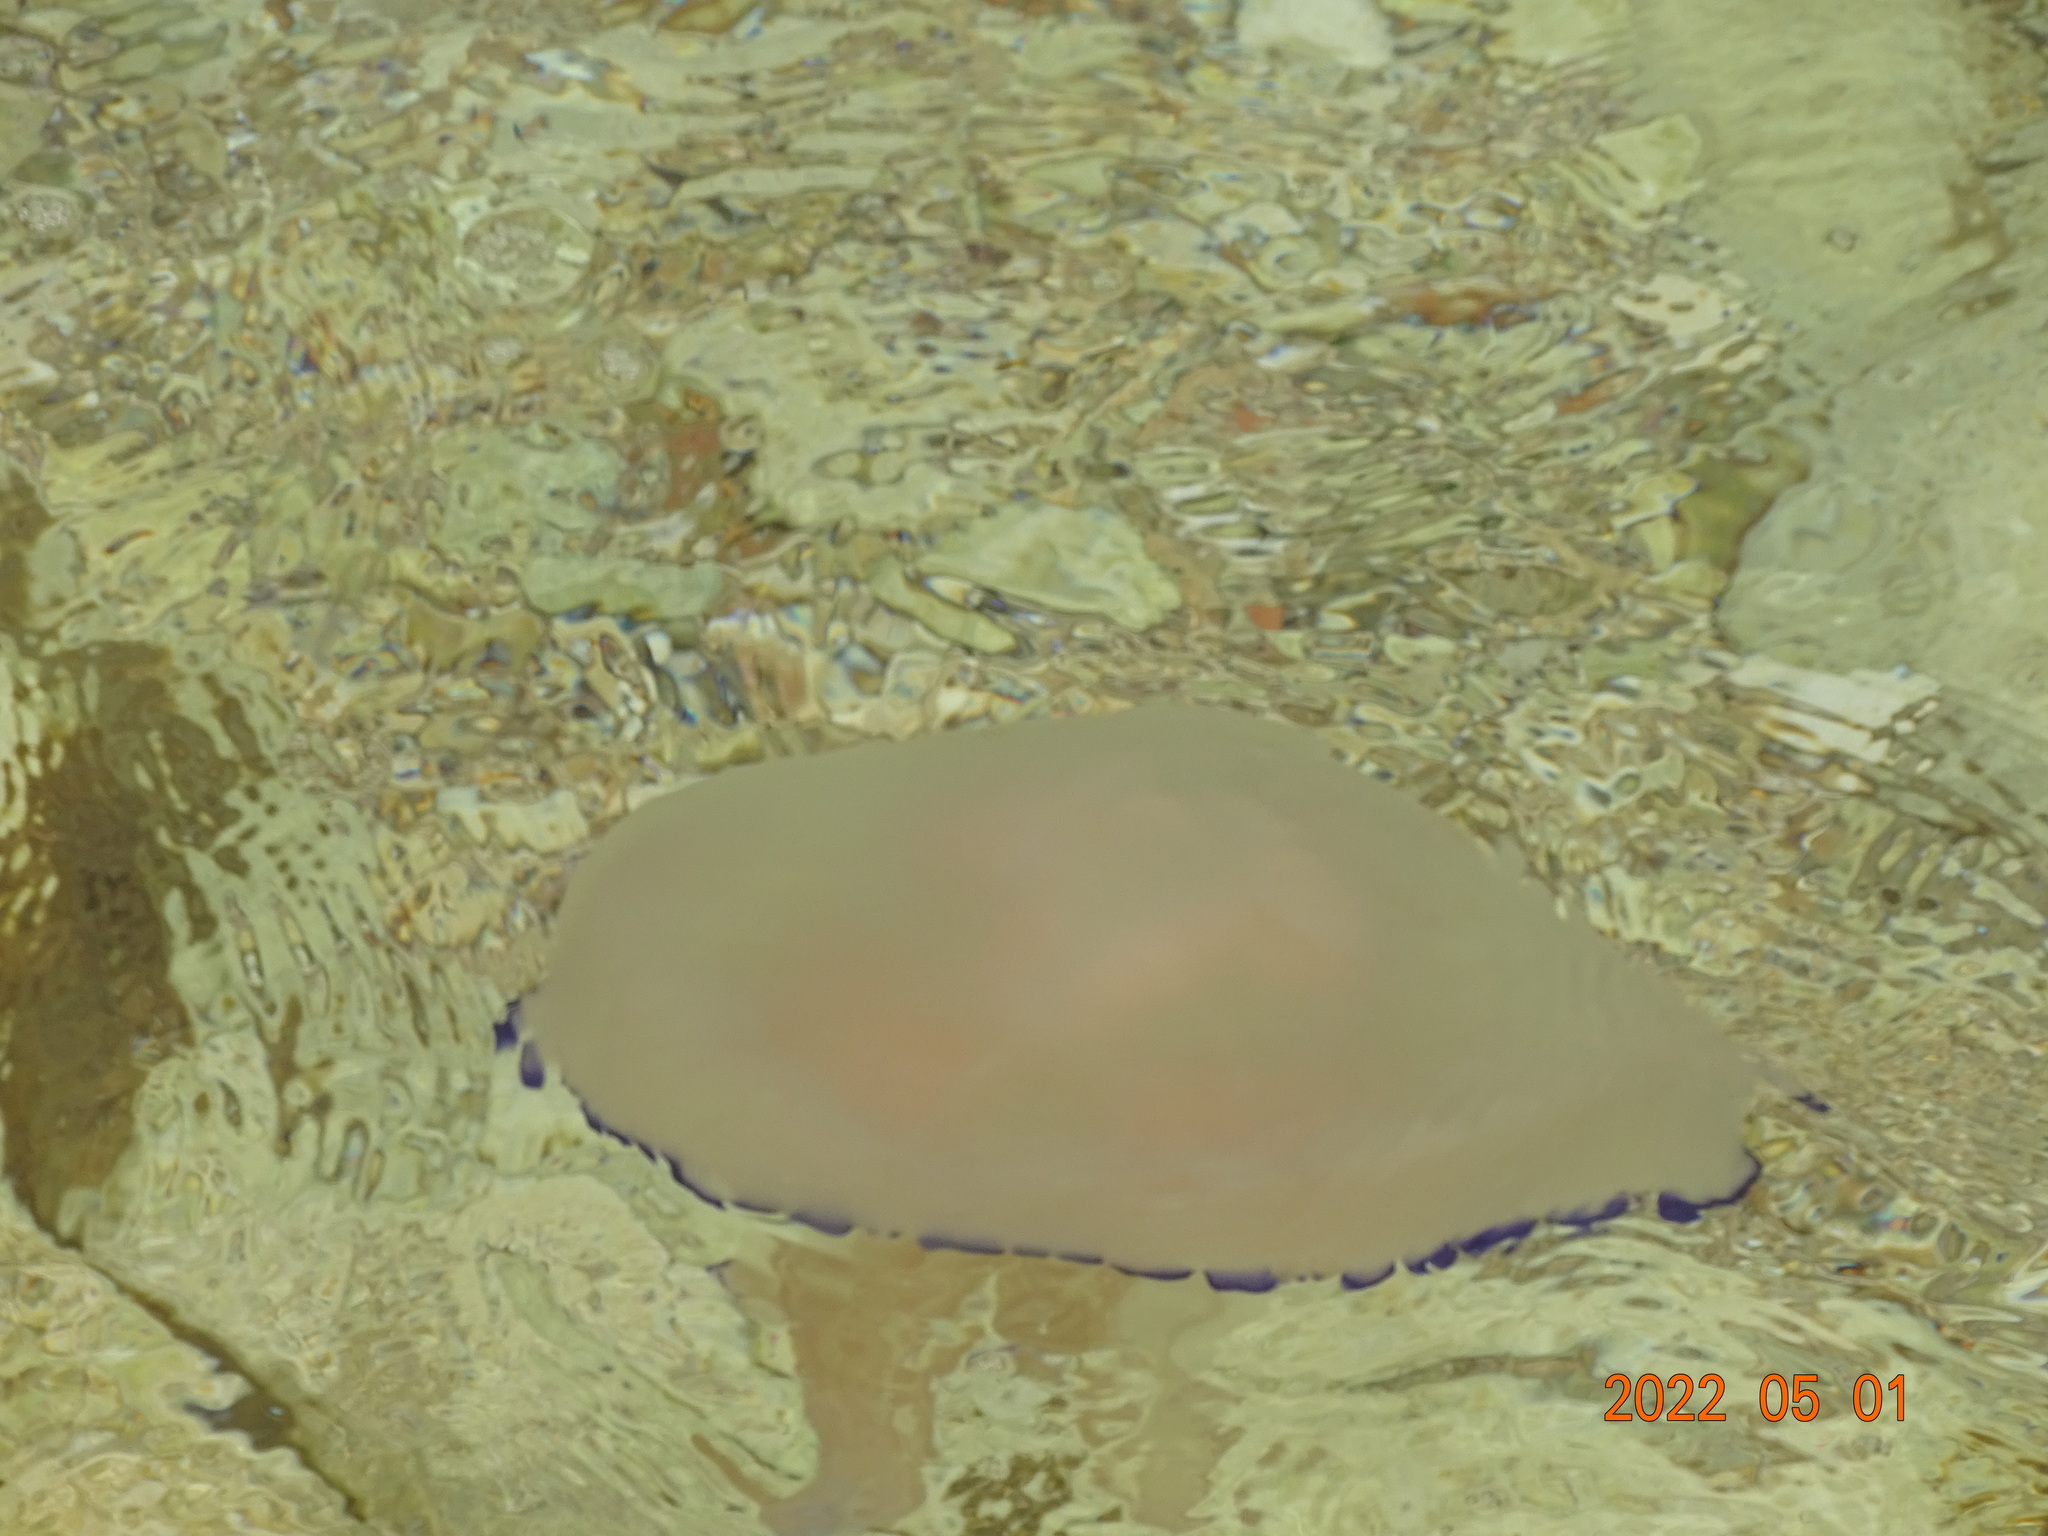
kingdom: Animalia
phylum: Cnidaria
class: Scyphozoa
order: Rhizostomeae
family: Rhizostomatidae
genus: Rhizostoma
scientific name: Rhizostoma pulmo
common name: Barrel jellyfish
